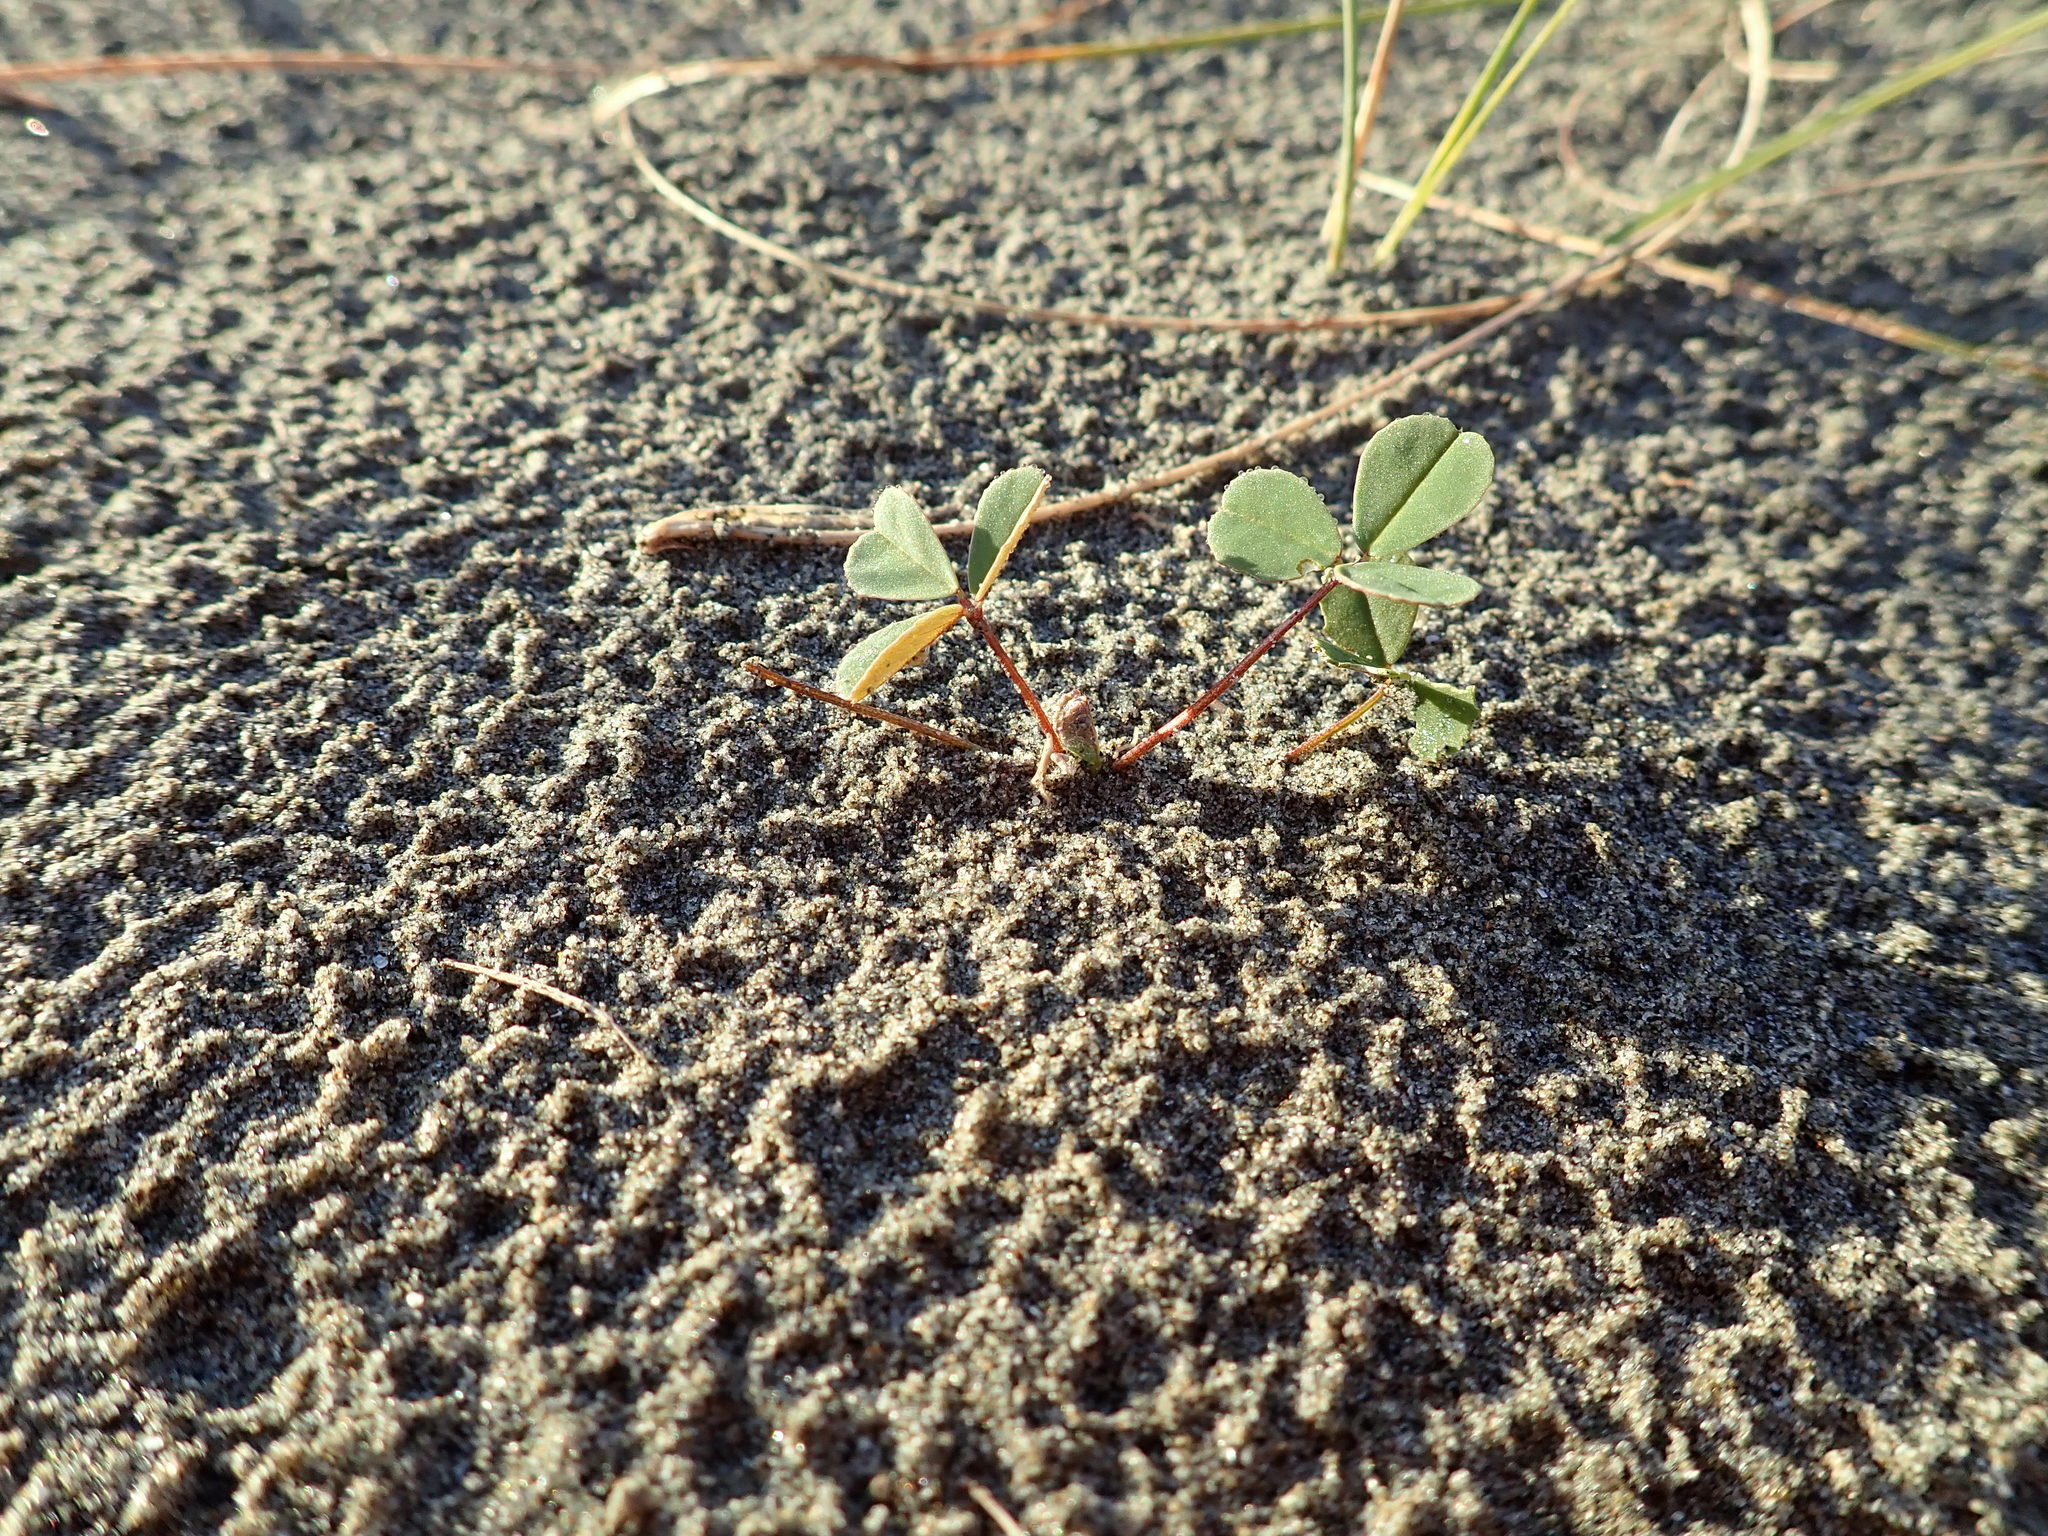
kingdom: Plantae
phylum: Tracheophyta
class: Magnoliopsida
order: Fabales
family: Fabaceae
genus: Melilotus
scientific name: Melilotus indicus
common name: Small melilot
